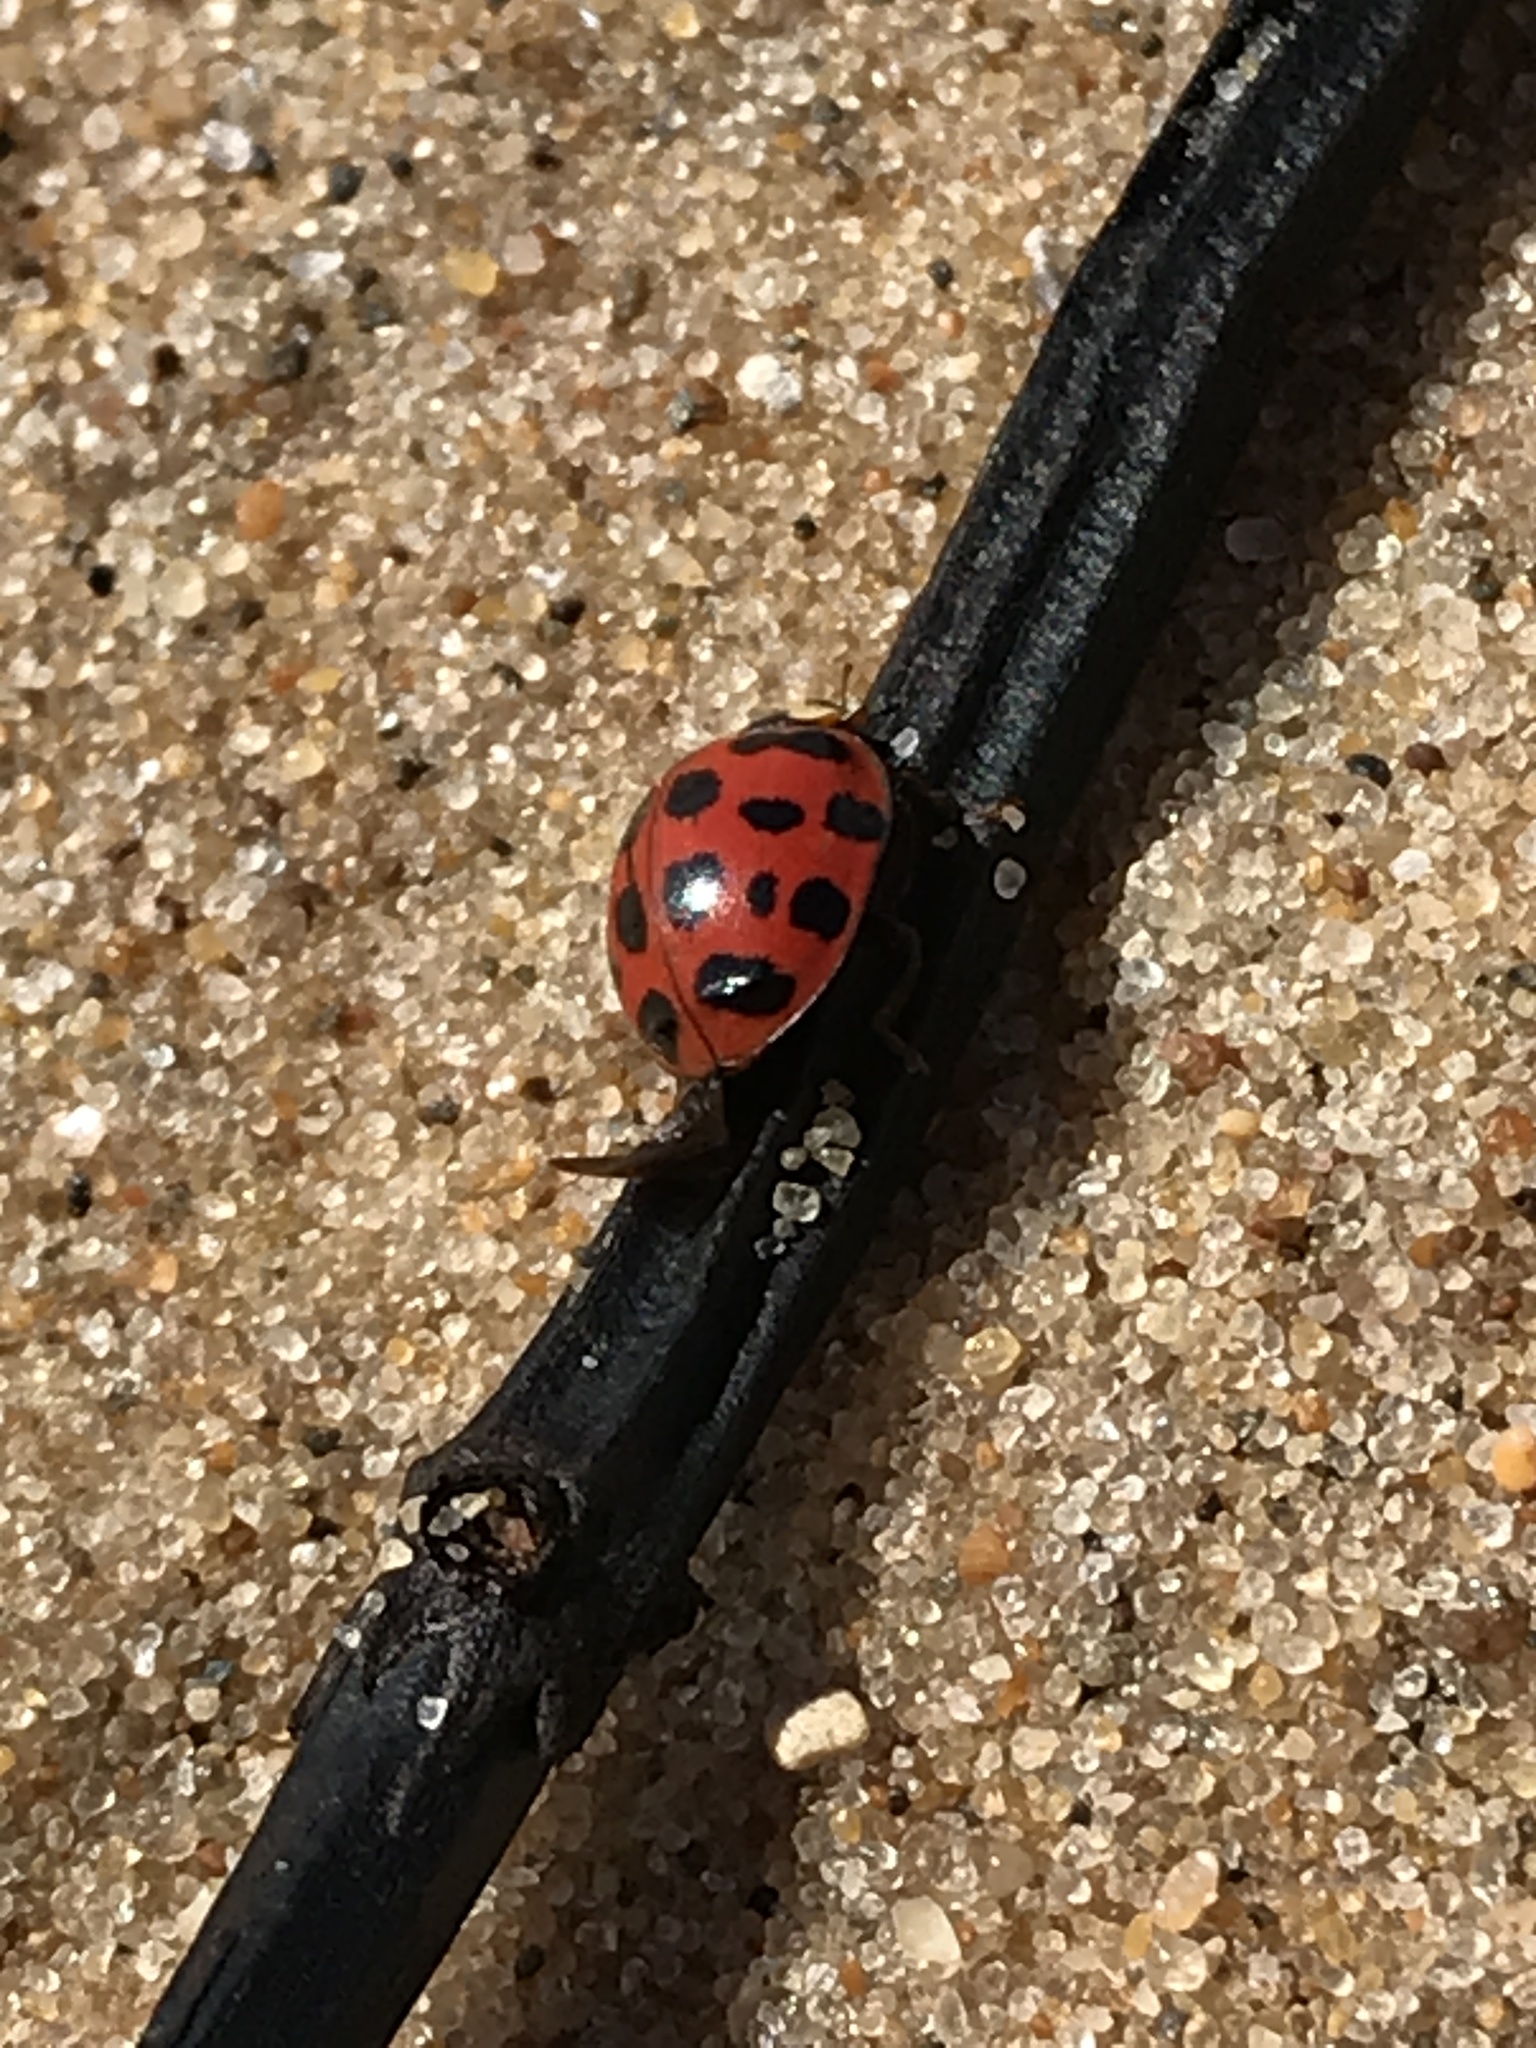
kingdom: Animalia
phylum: Arthropoda
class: Insecta
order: Coleoptera
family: Coccinellidae
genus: Harmonia
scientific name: Harmonia axyridis
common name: Harlequin ladybird
